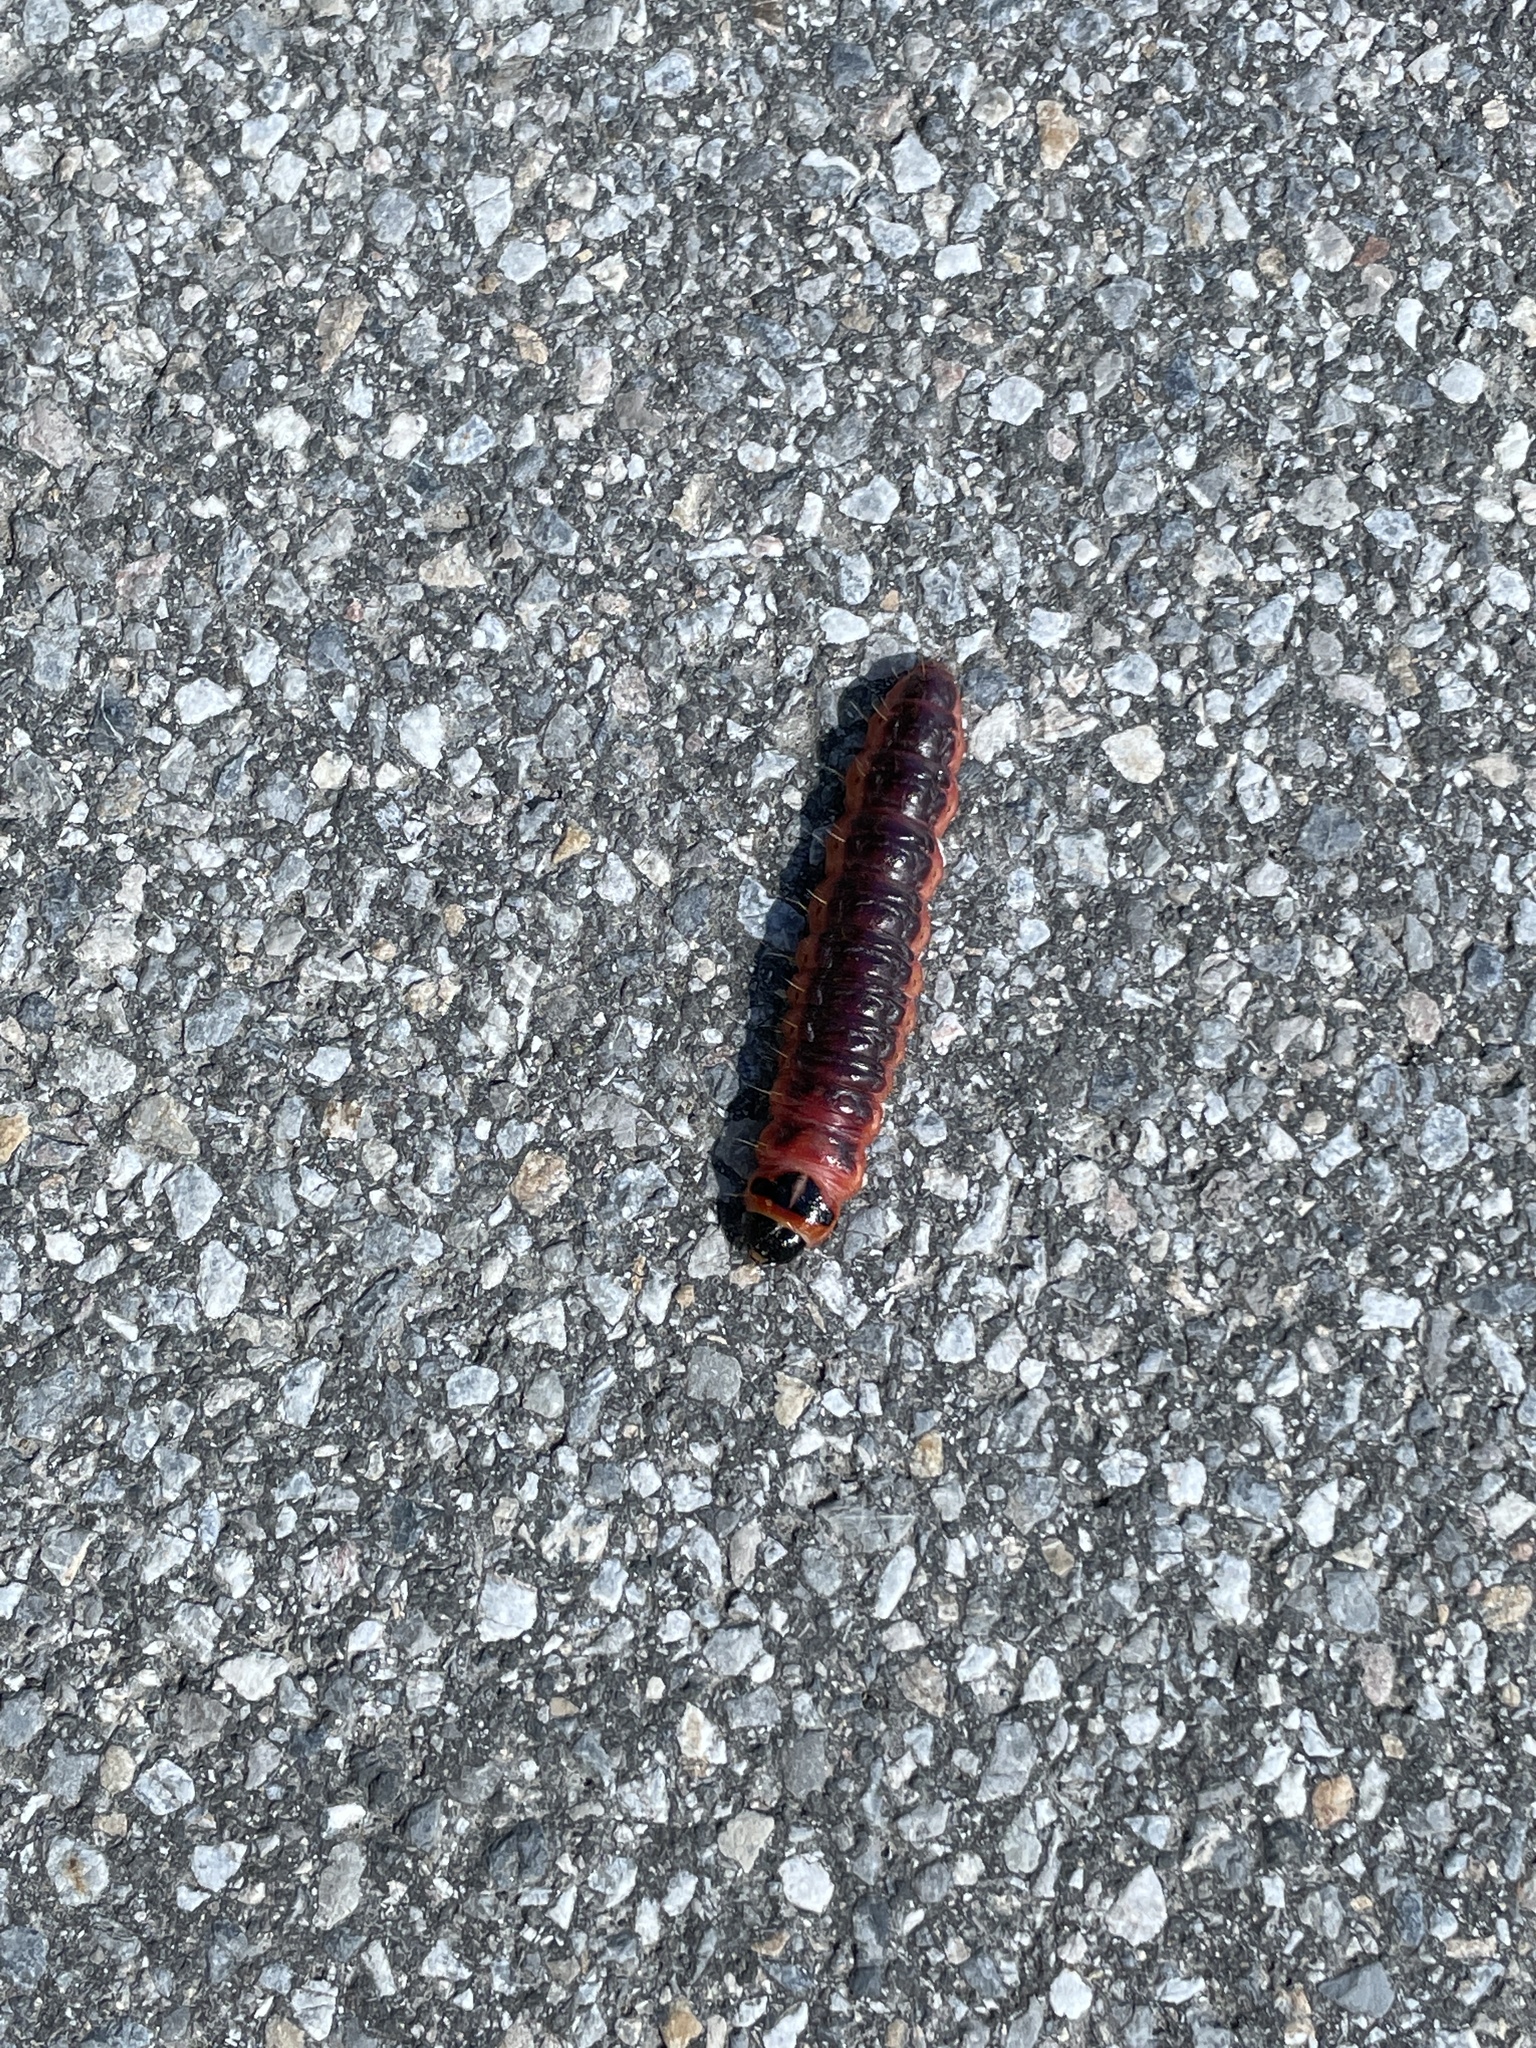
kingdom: Animalia
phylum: Arthropoda
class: Insecta
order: Lepidoptera
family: Cossidae
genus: Cossus
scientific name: Cossus cossus
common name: Goat moth
